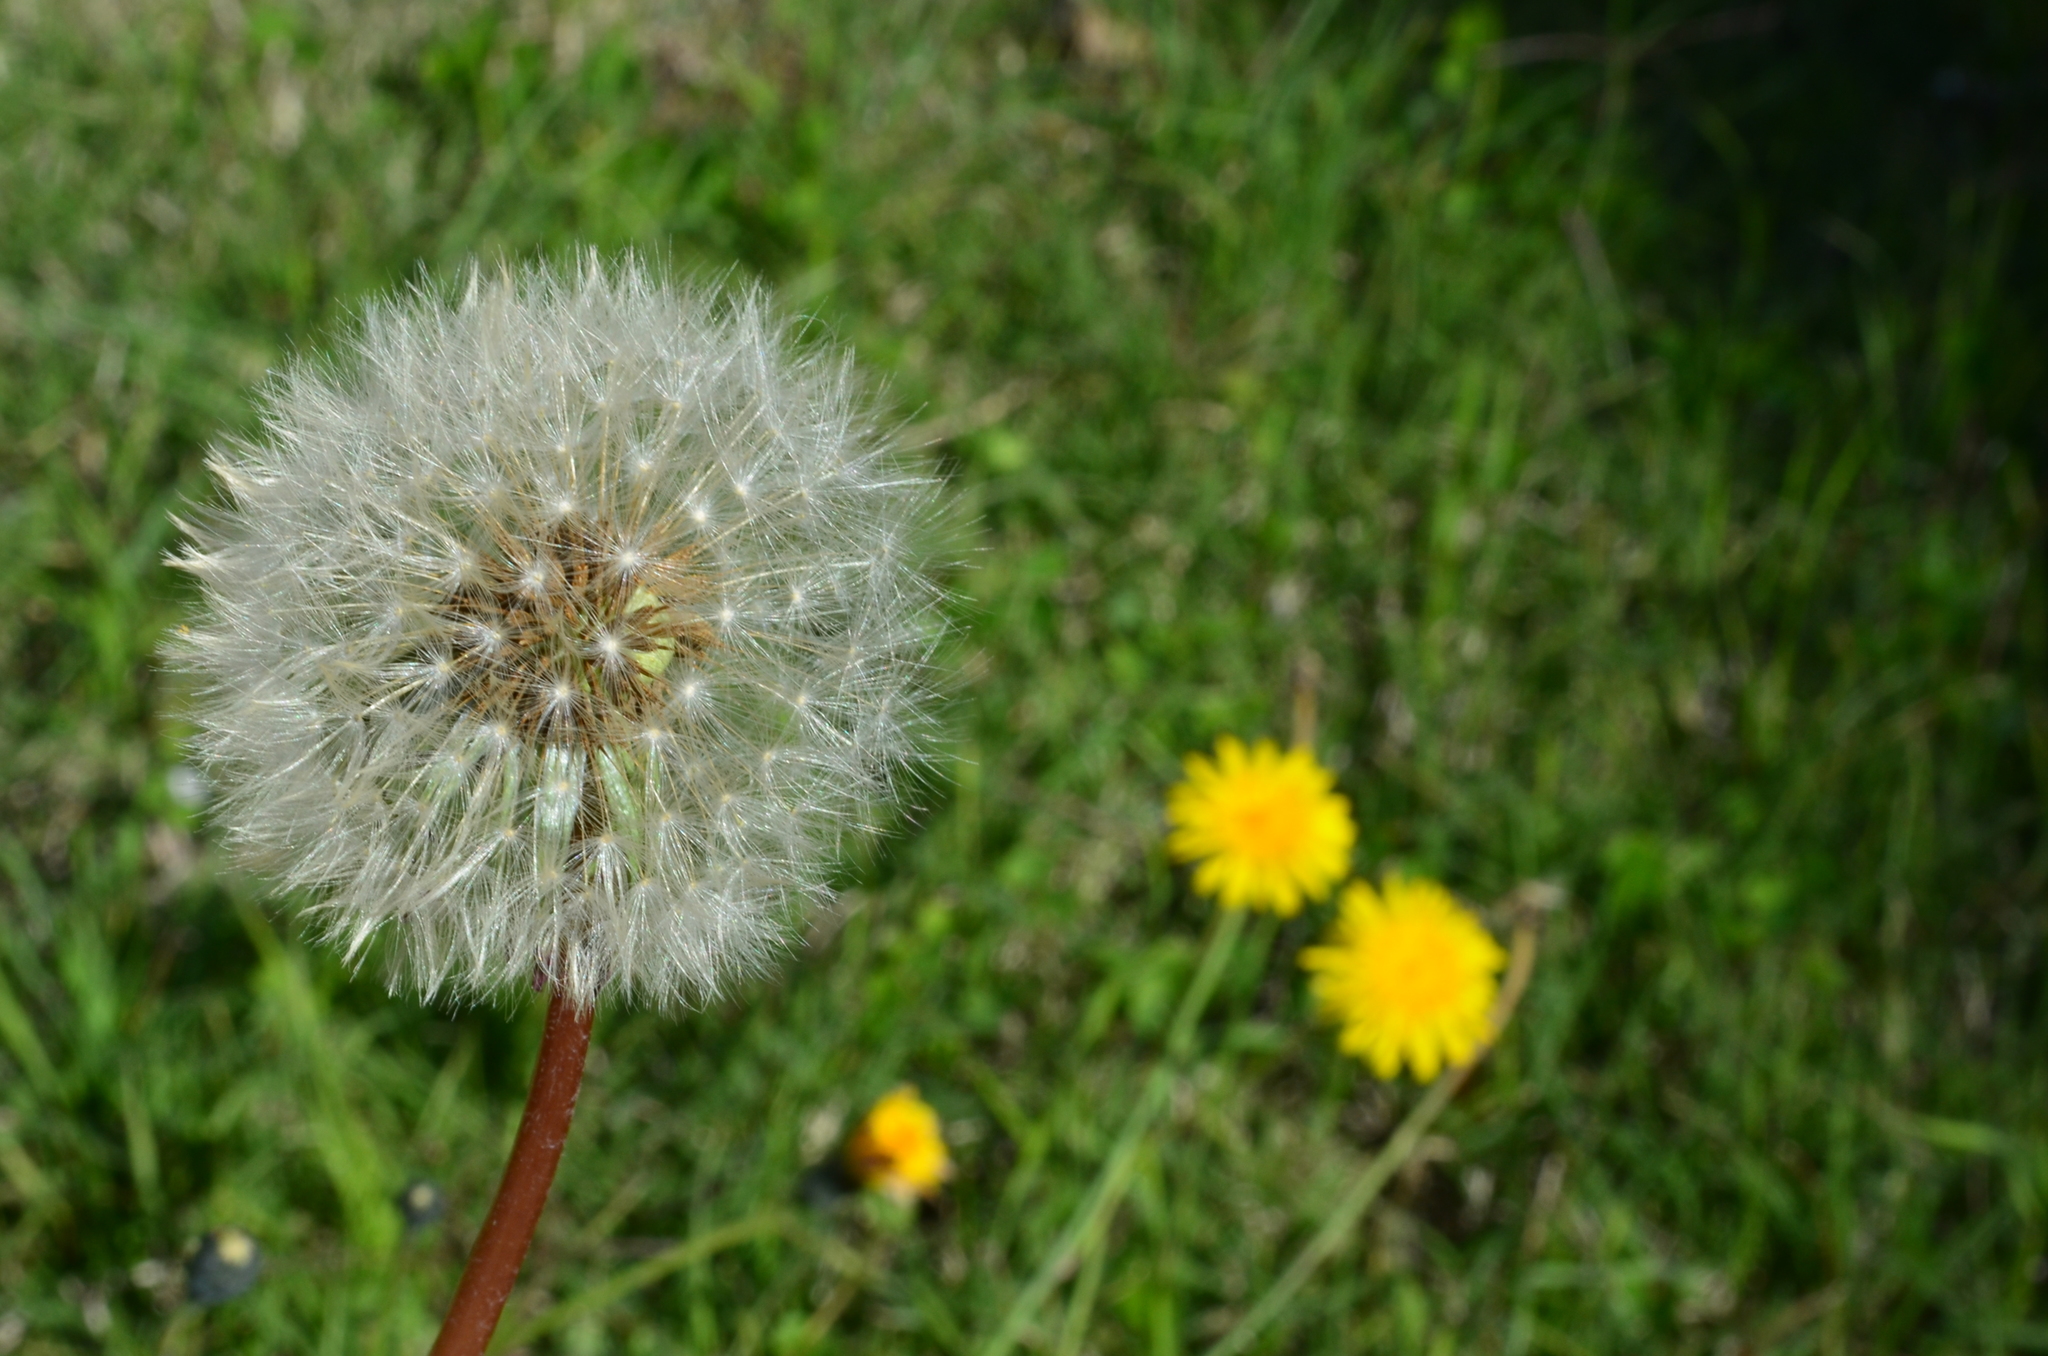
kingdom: Plantae
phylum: Tracheophyta
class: Magnoliopsida
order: Asterales
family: Asteraceae
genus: Taraxacum
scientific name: Taraxacum officinale
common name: Common dandelion
